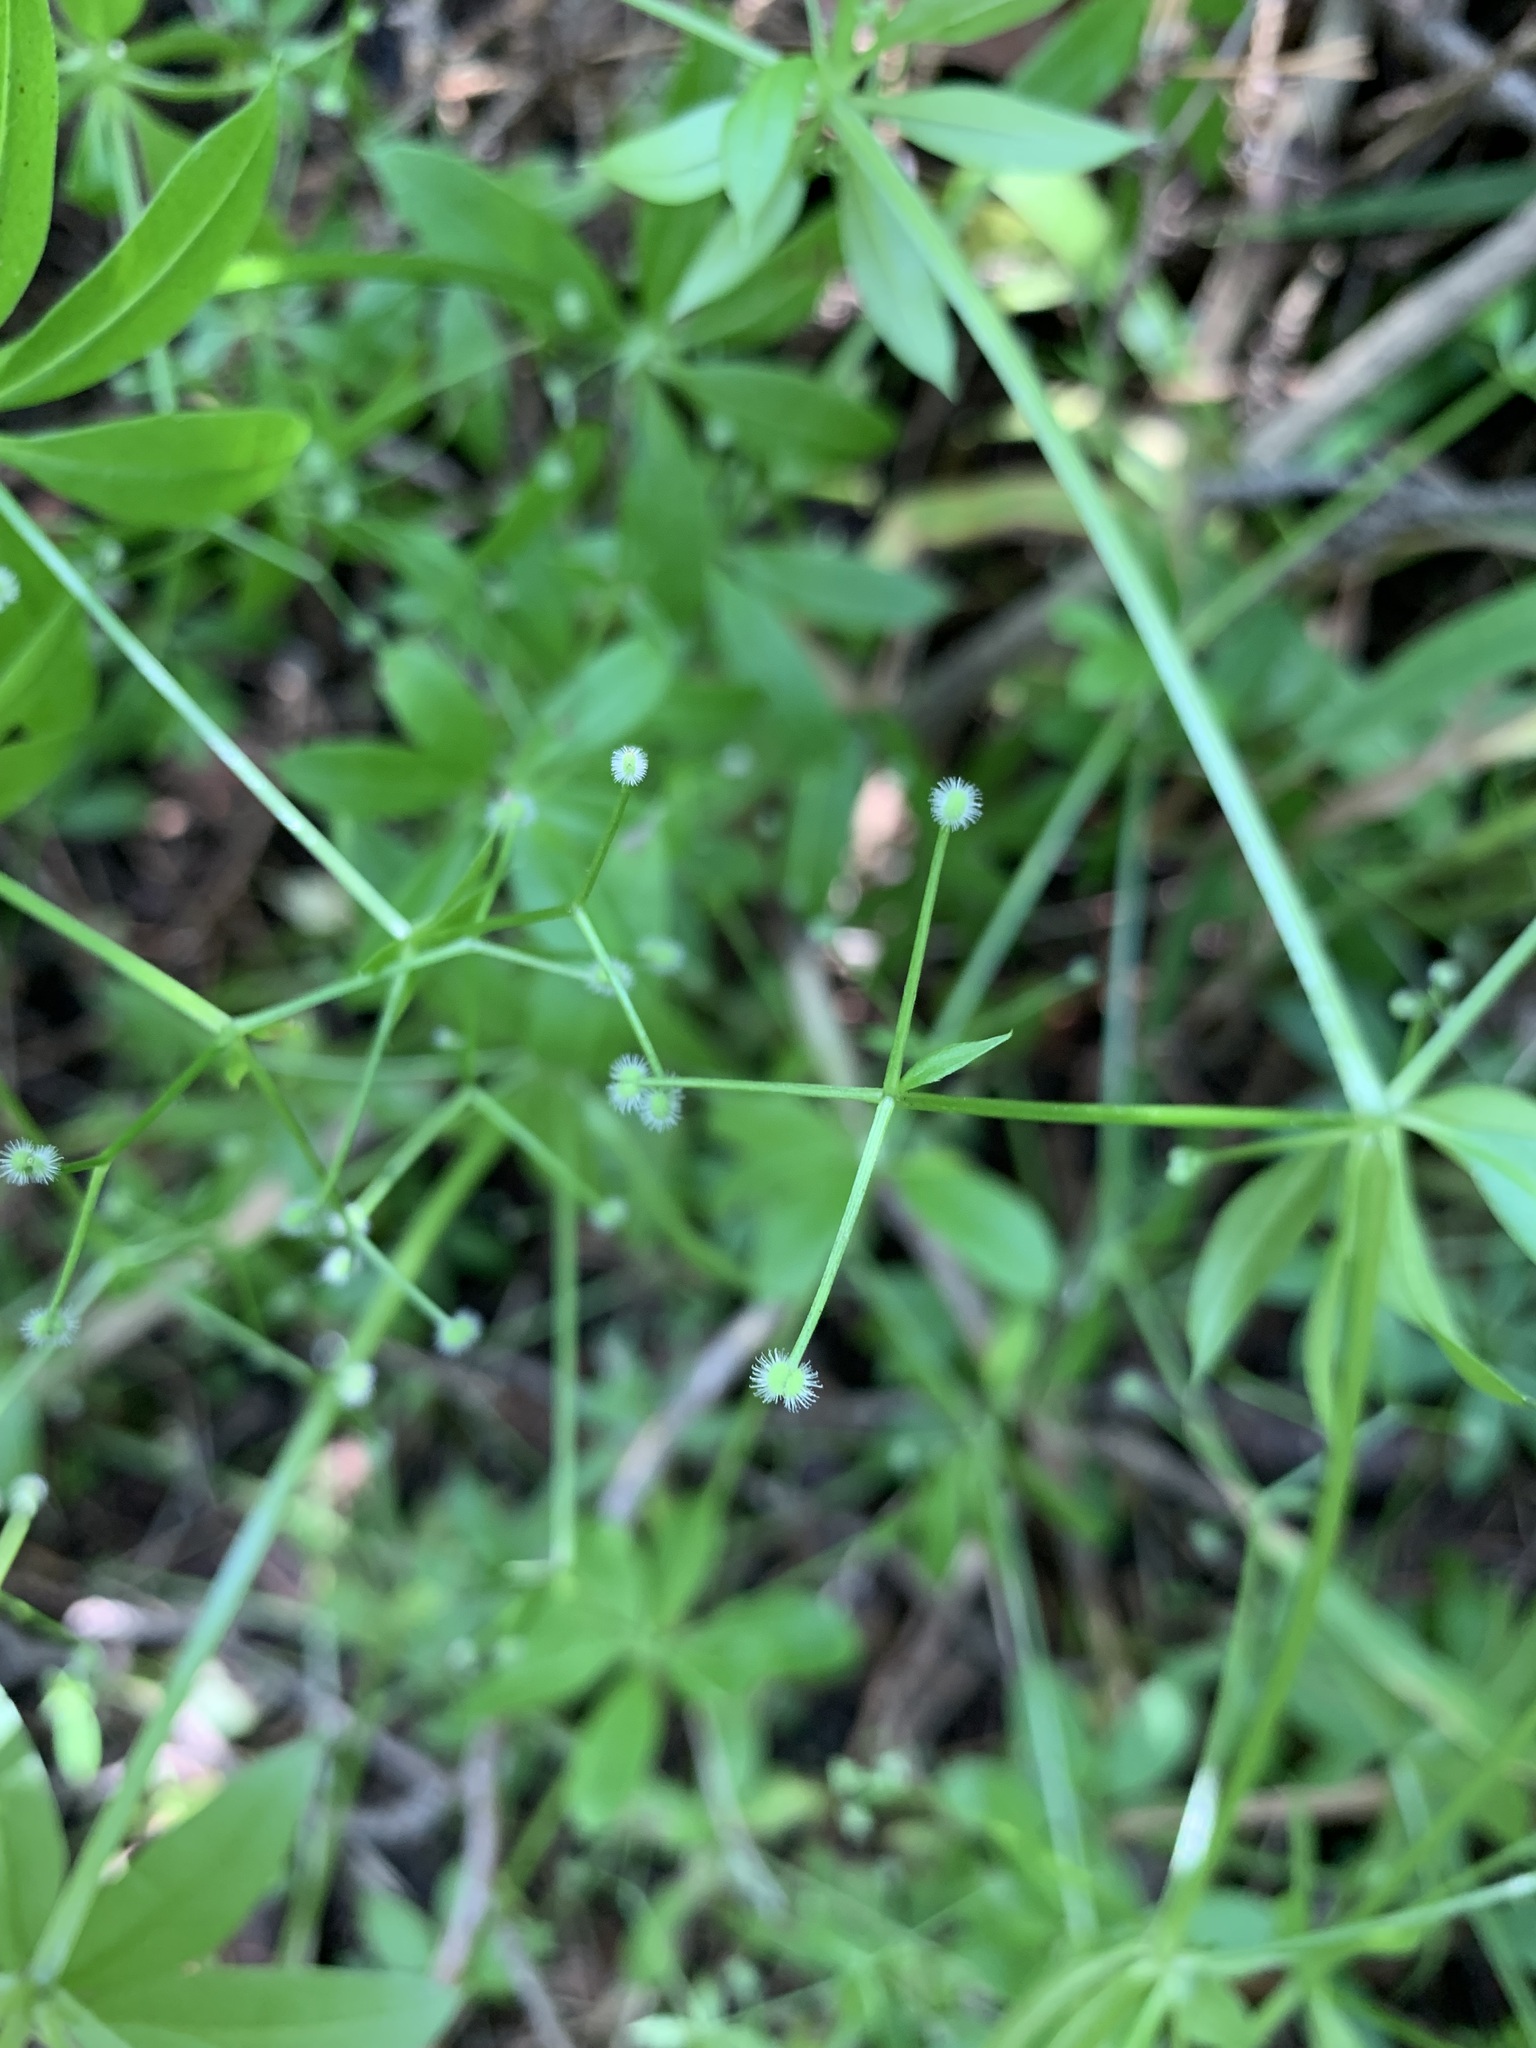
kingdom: Plantae
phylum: Tracheophyta
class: Magnoliopsida
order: Gentianales
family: Rubiaceae
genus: Galium
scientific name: Galium triflorum
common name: Fragrant bedstraw
